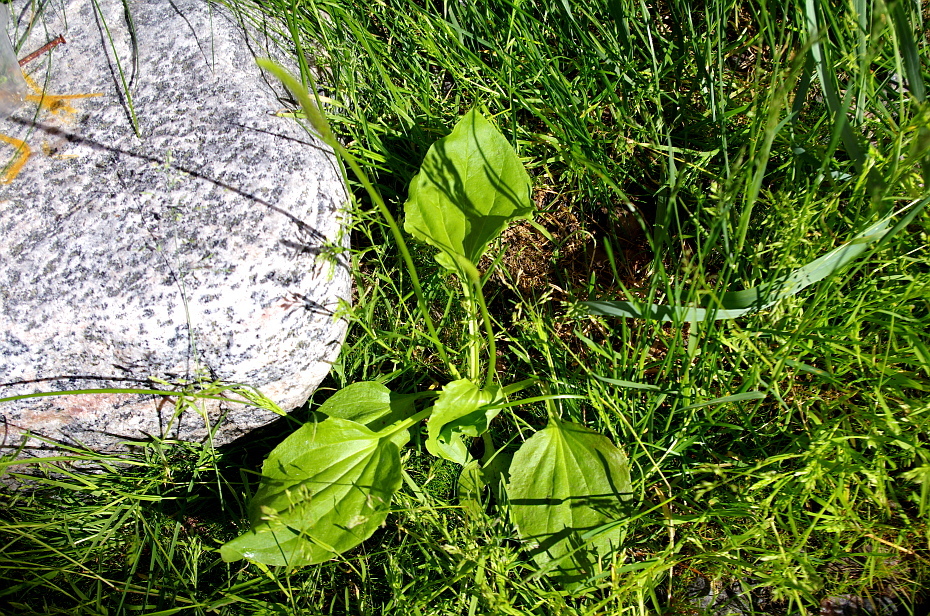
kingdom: Plantae
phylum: Tracheophyta
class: Magnoliopsida
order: Lamiales
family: Plantaginaceae
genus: Plantago
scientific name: Plantago major
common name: Common plantain
